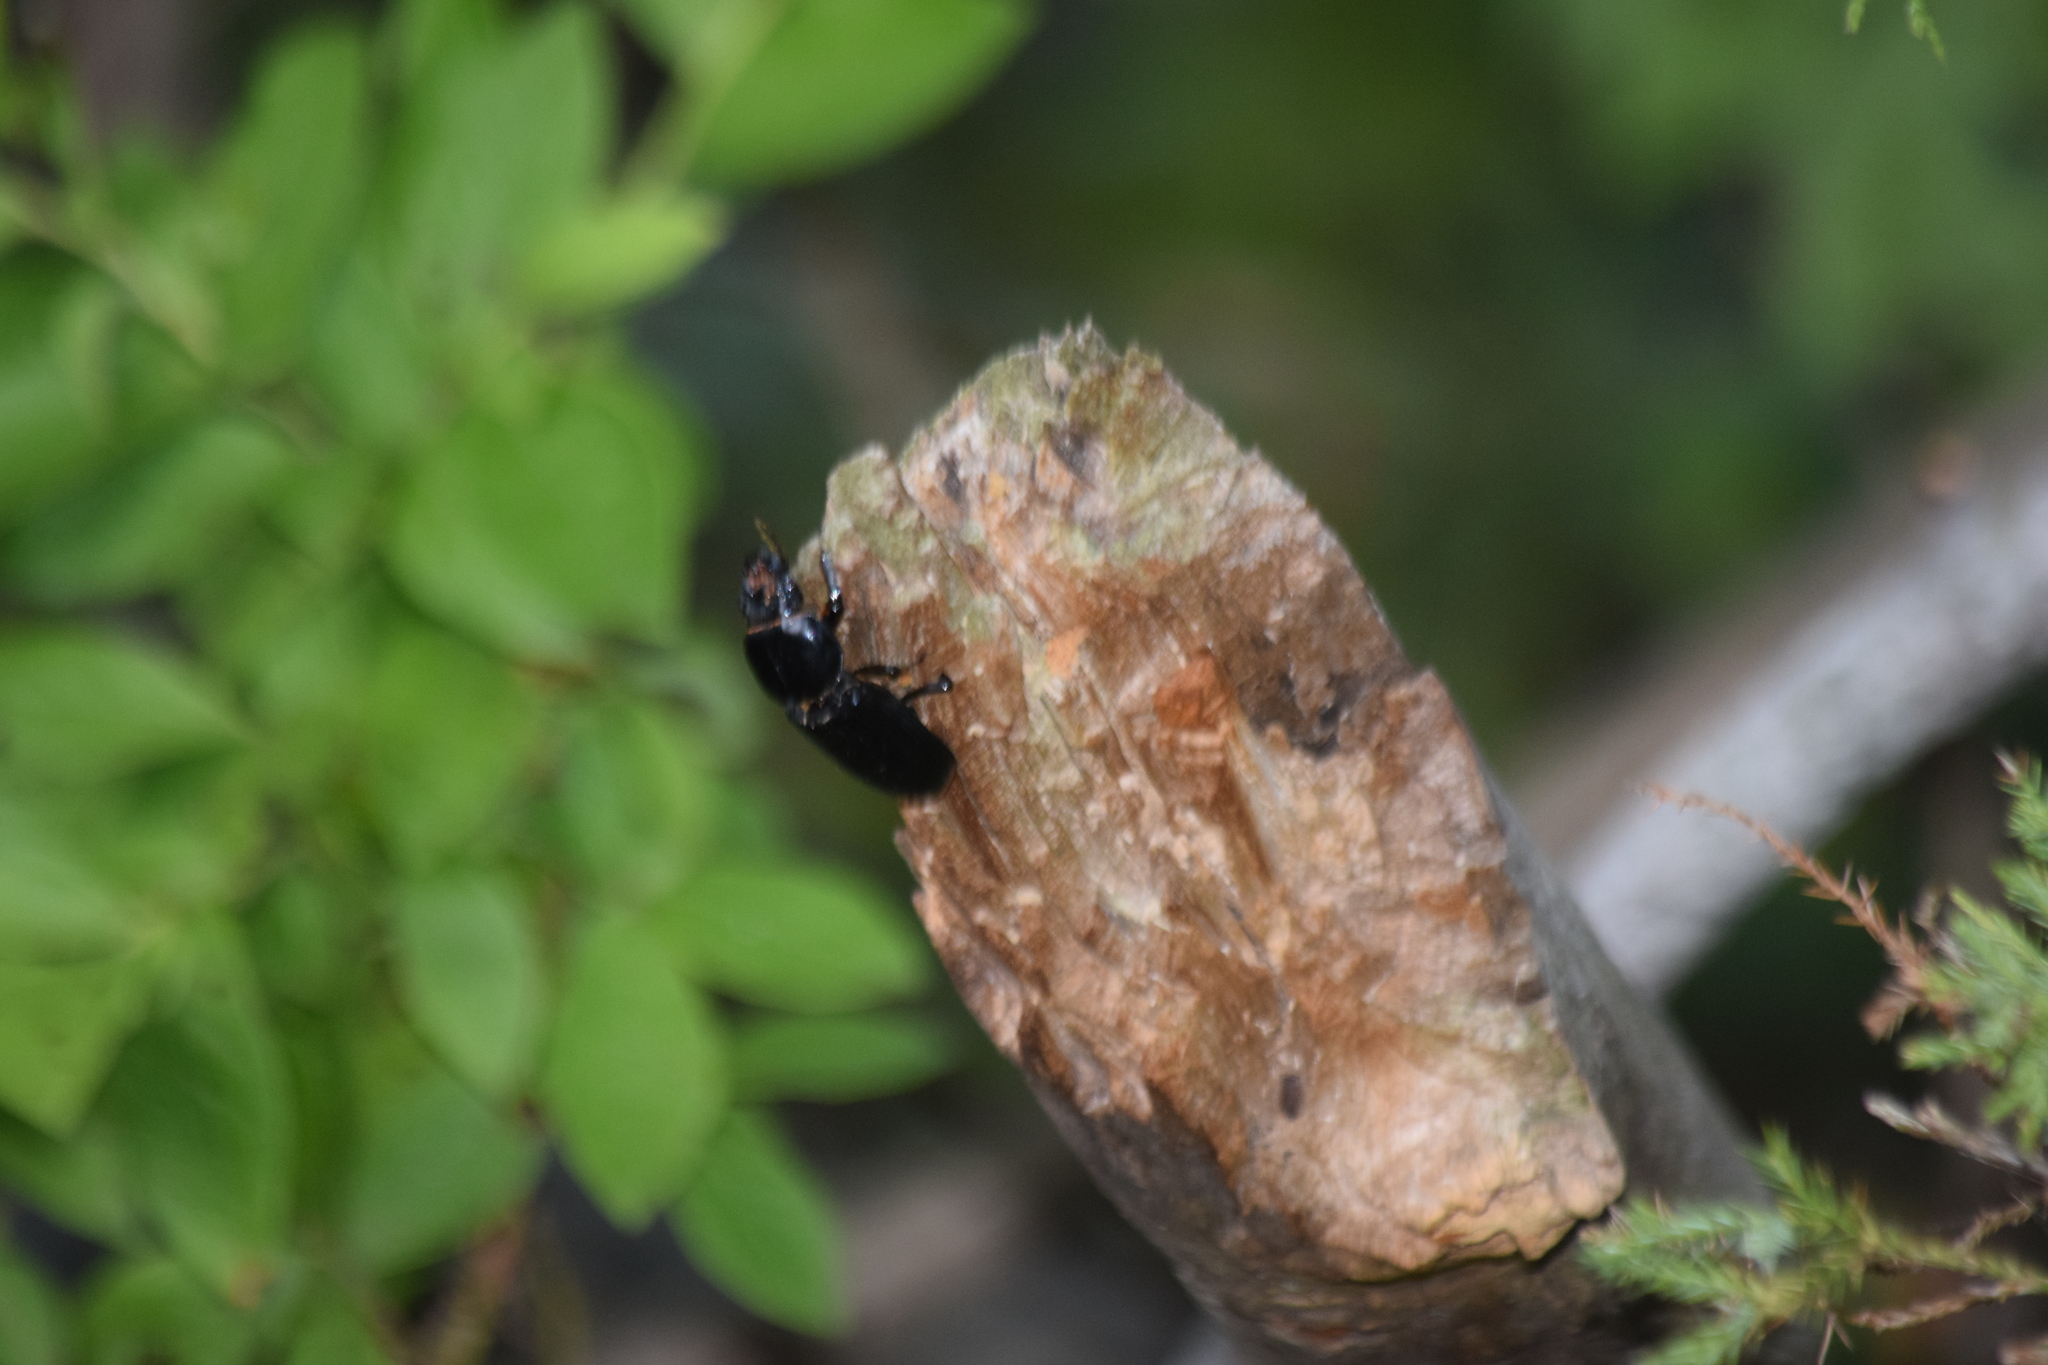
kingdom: Animalia
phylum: Arthropoda
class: Insecta
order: Coleoptera
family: Passalidae
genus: Odontotaenius
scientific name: Odontotaenius disjunctus
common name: Patent leather beetle
